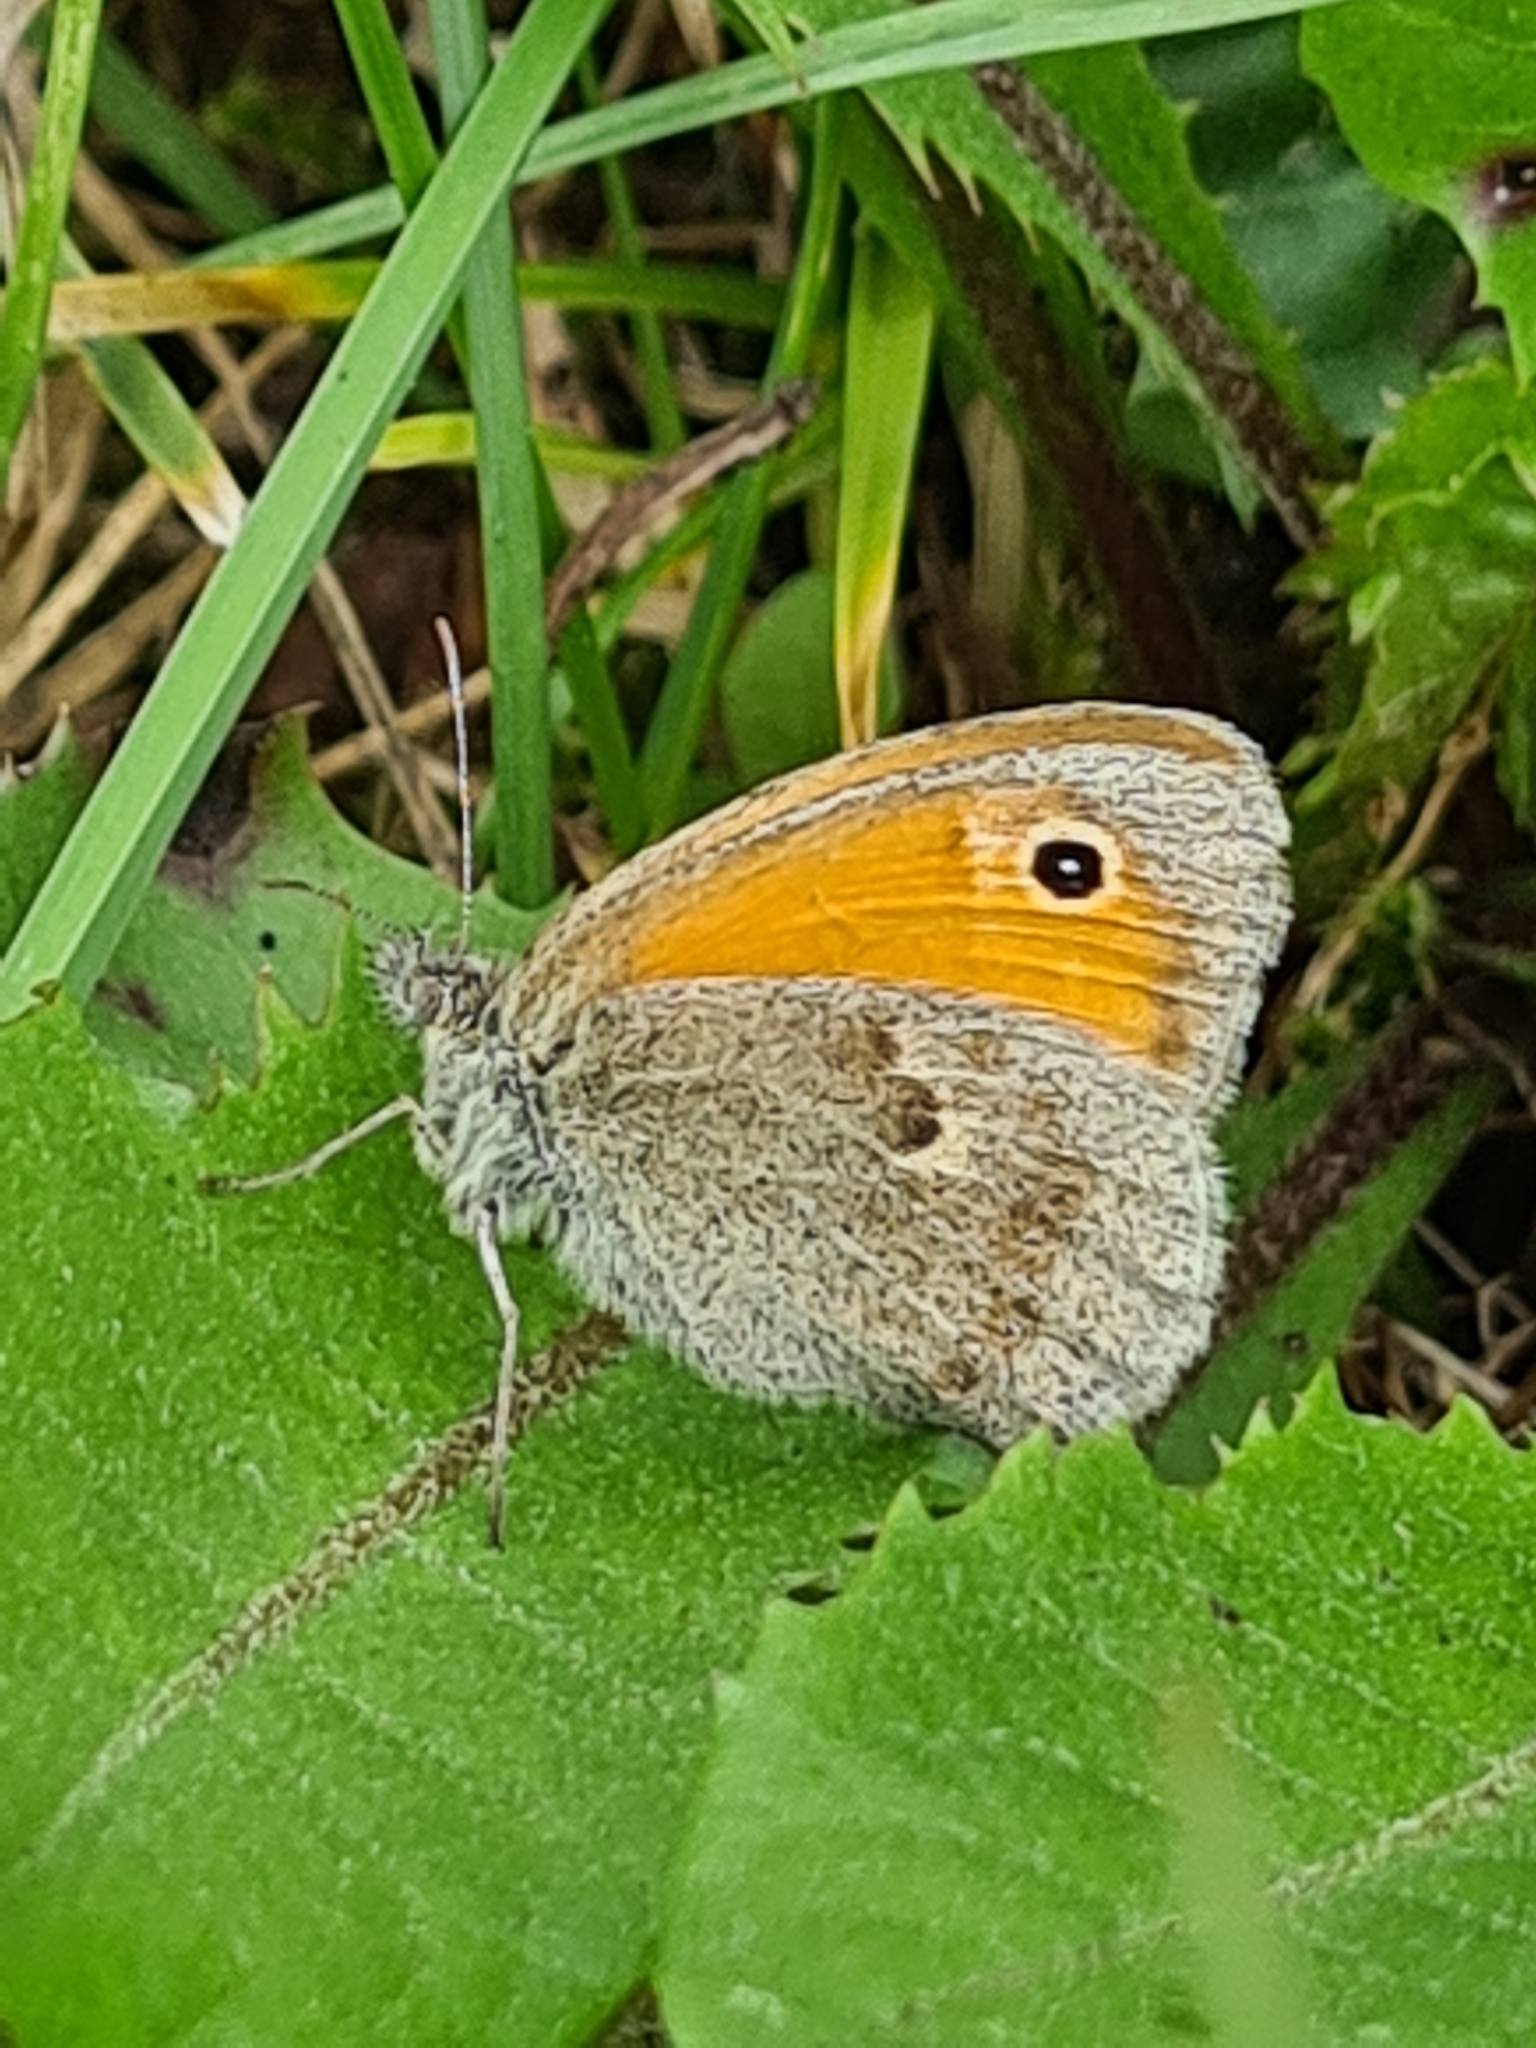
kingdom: Animalia
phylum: Arthropoda
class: Insecta
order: Lepidoptera
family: Nymphalidae
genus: Coenonympha
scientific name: Coenonympha pamphilus
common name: Small heath
